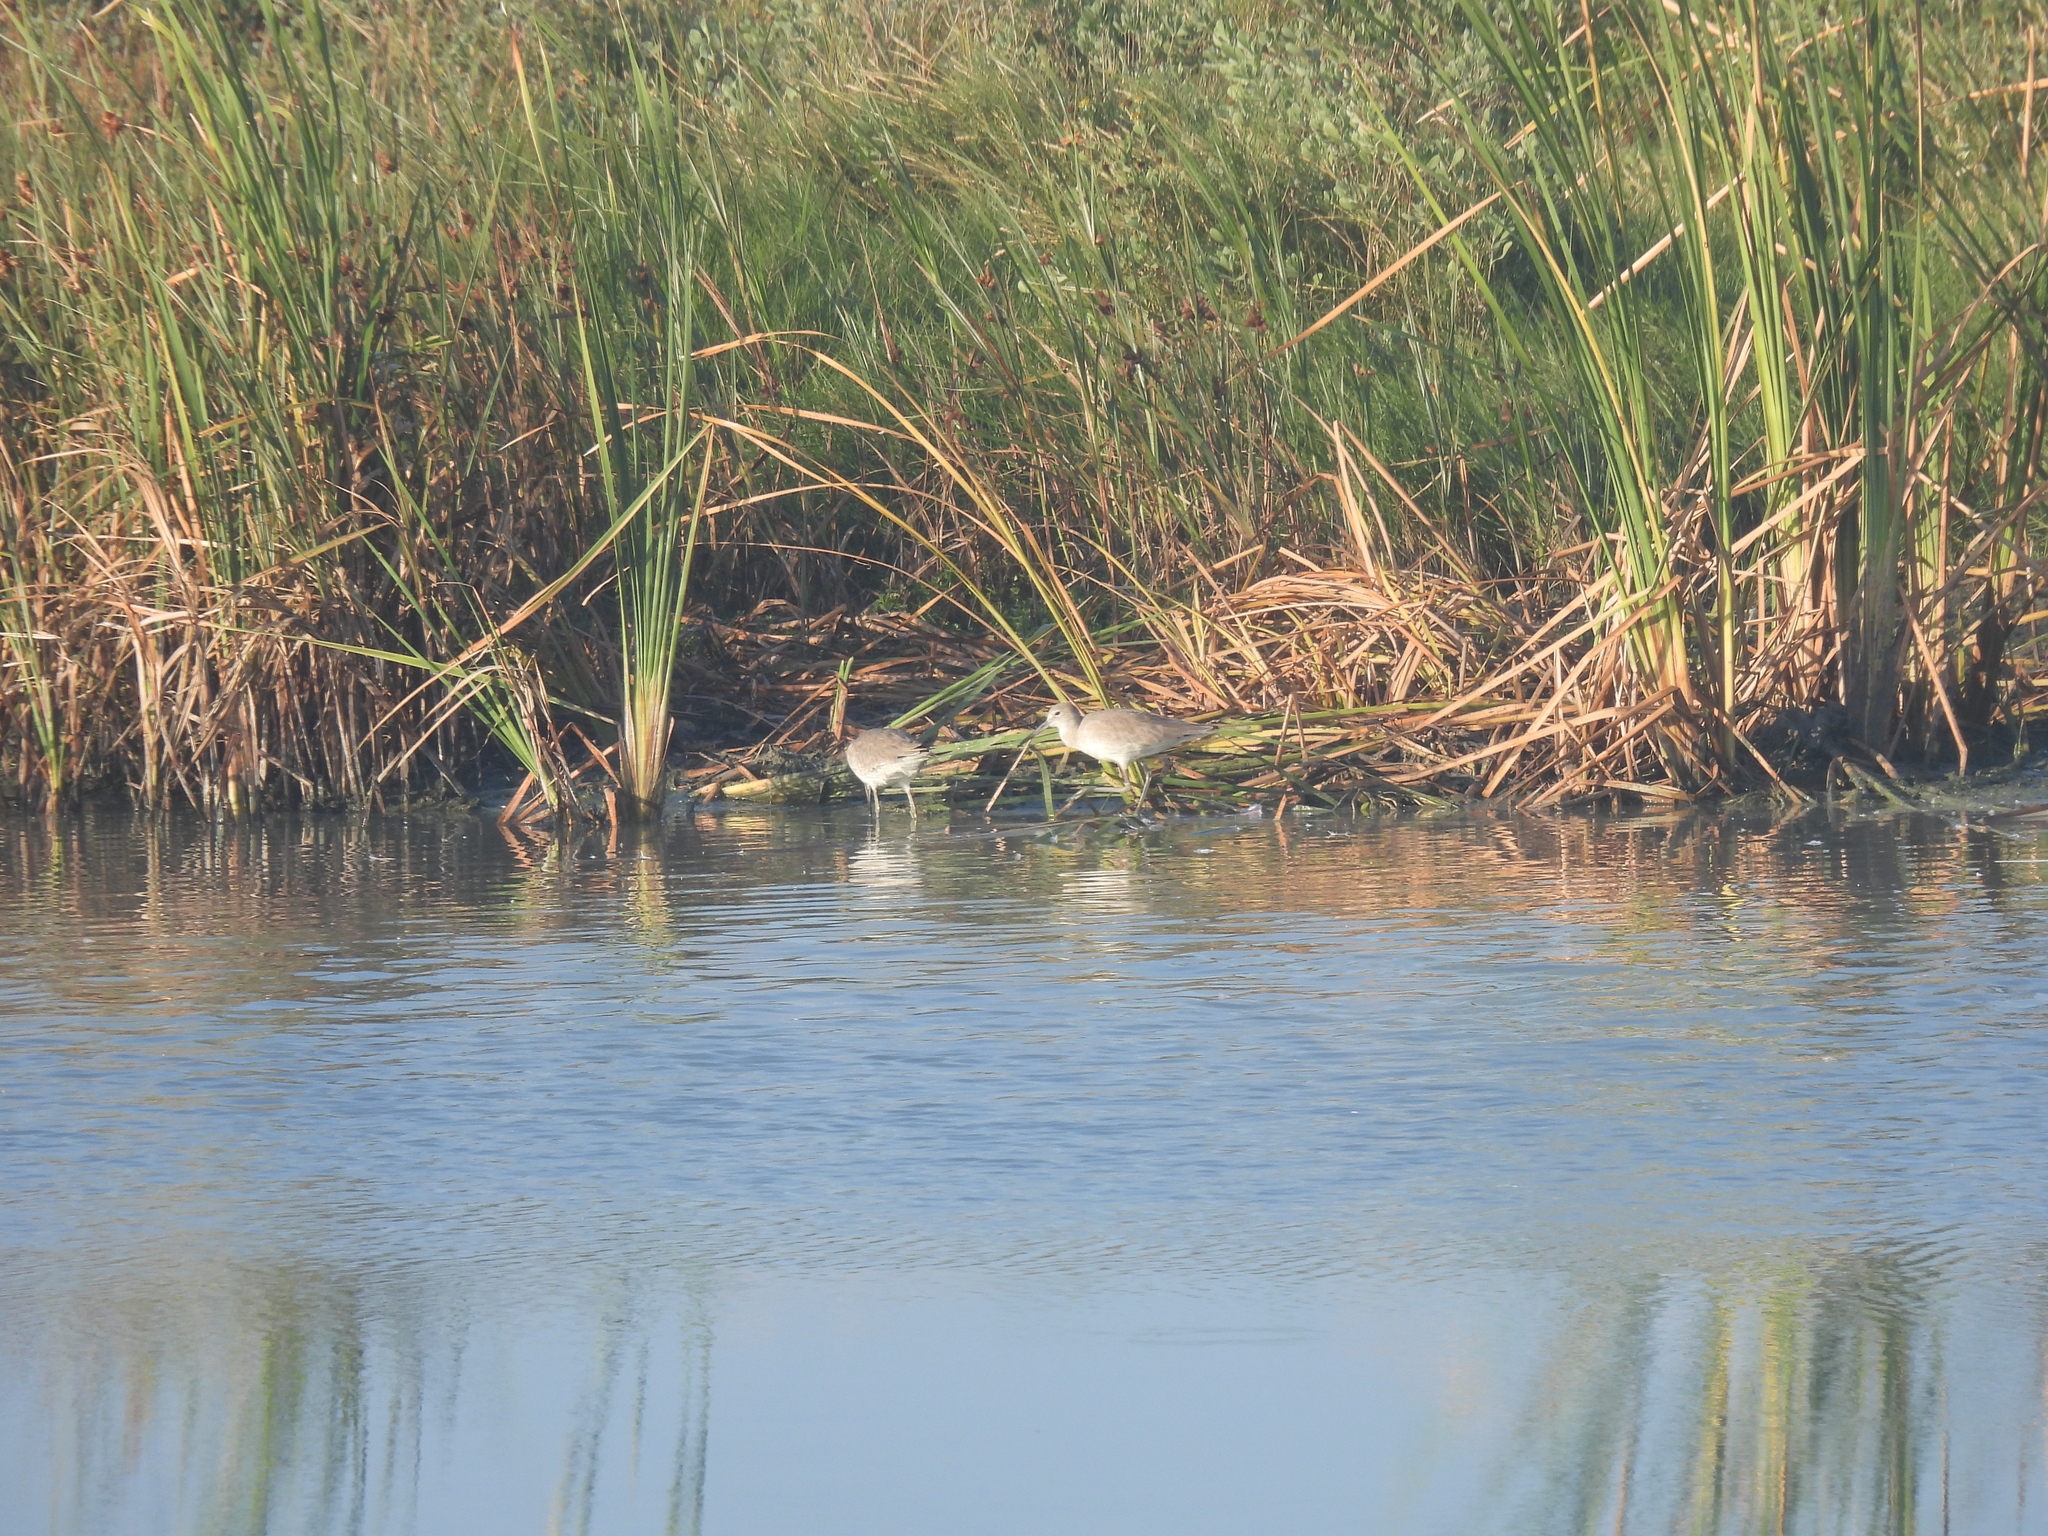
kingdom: Animalia
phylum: Chordata
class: Aves
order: Charadriiformes
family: Scolopacidae
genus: Tringa
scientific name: Tringa semipalmata
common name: Willet
